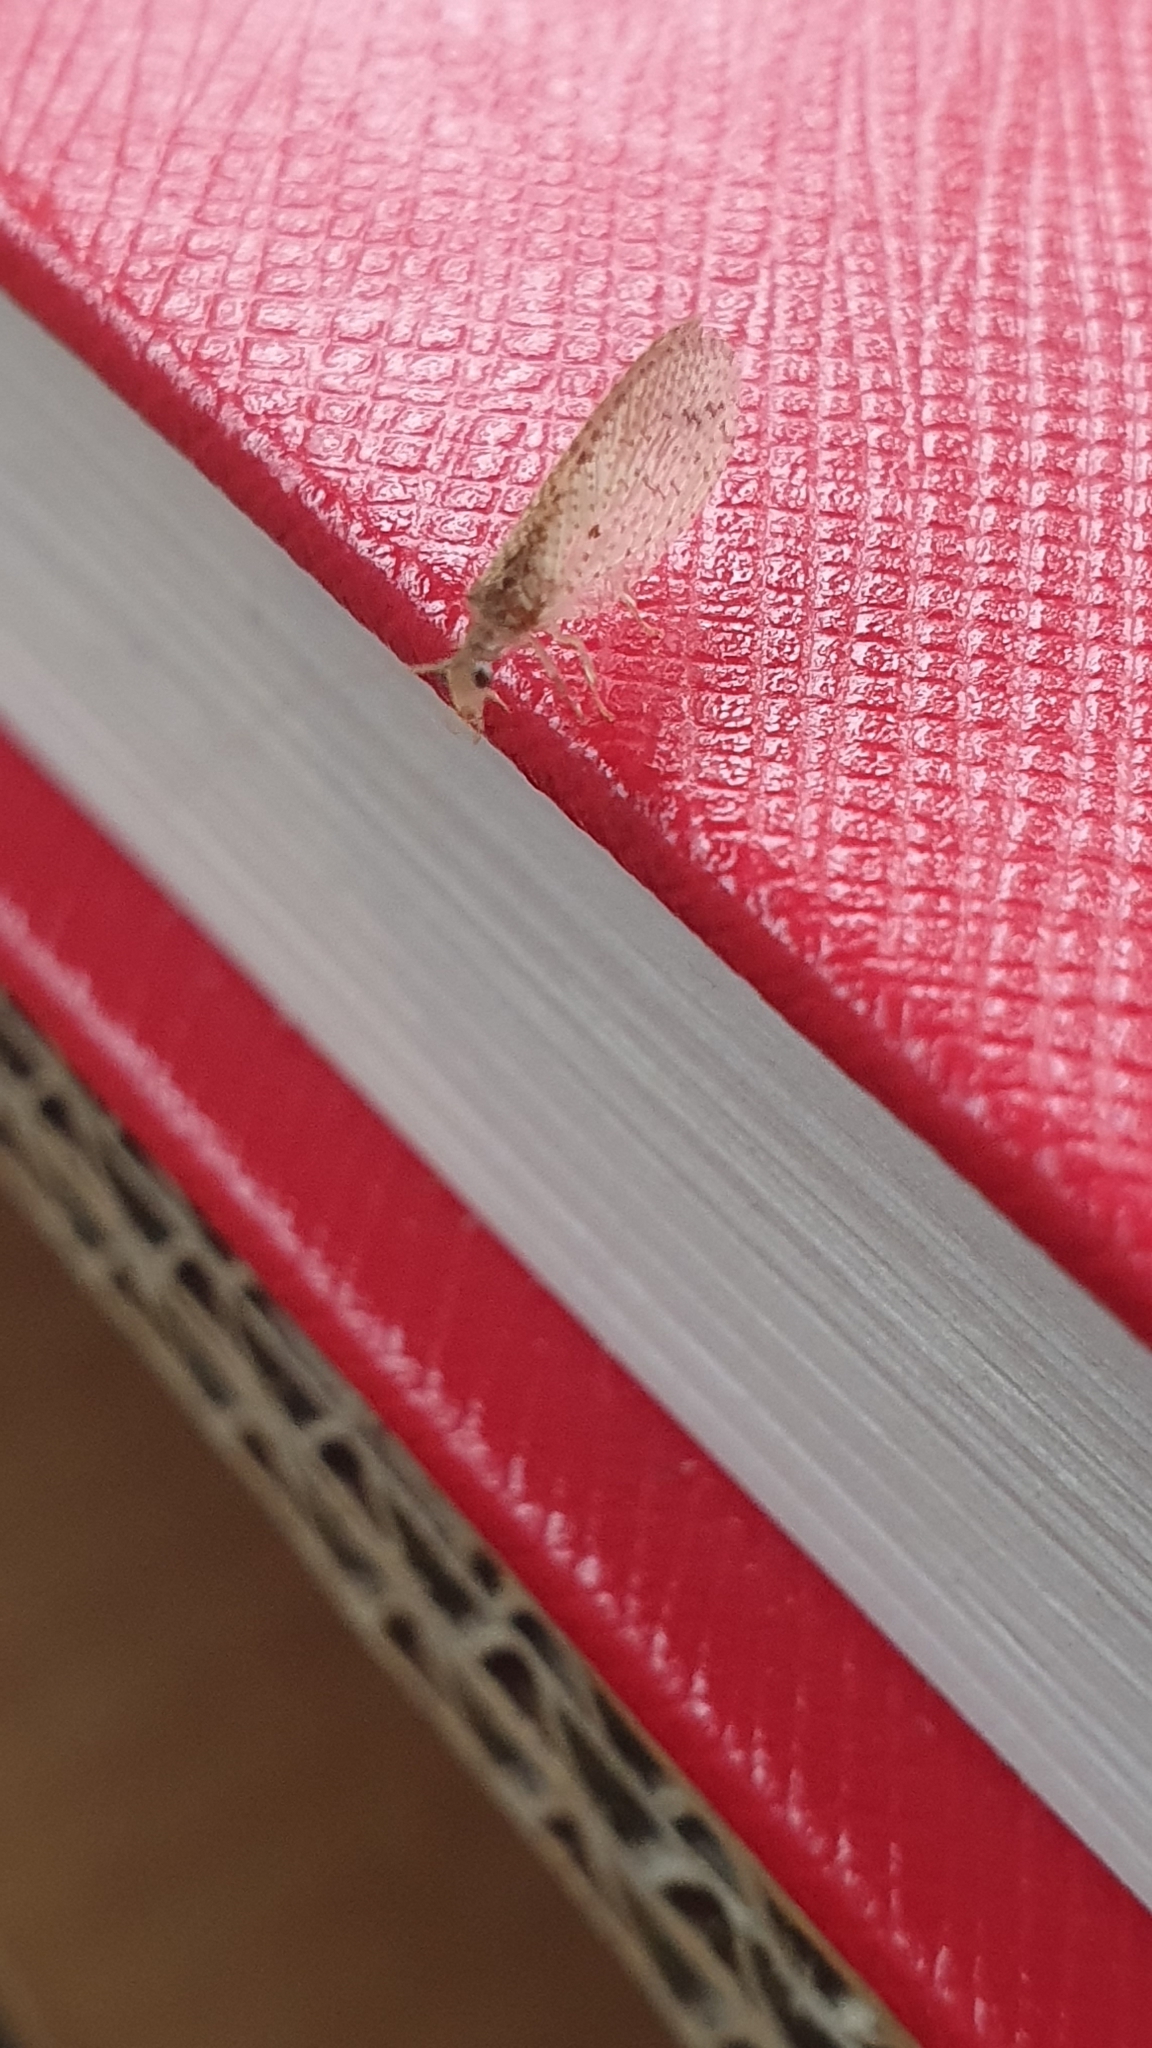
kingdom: Animalia
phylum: Arthropoda
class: Insecta
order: Neuroptera
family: Hemerobiidae
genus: Micromus
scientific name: Micromus tasmaniae
